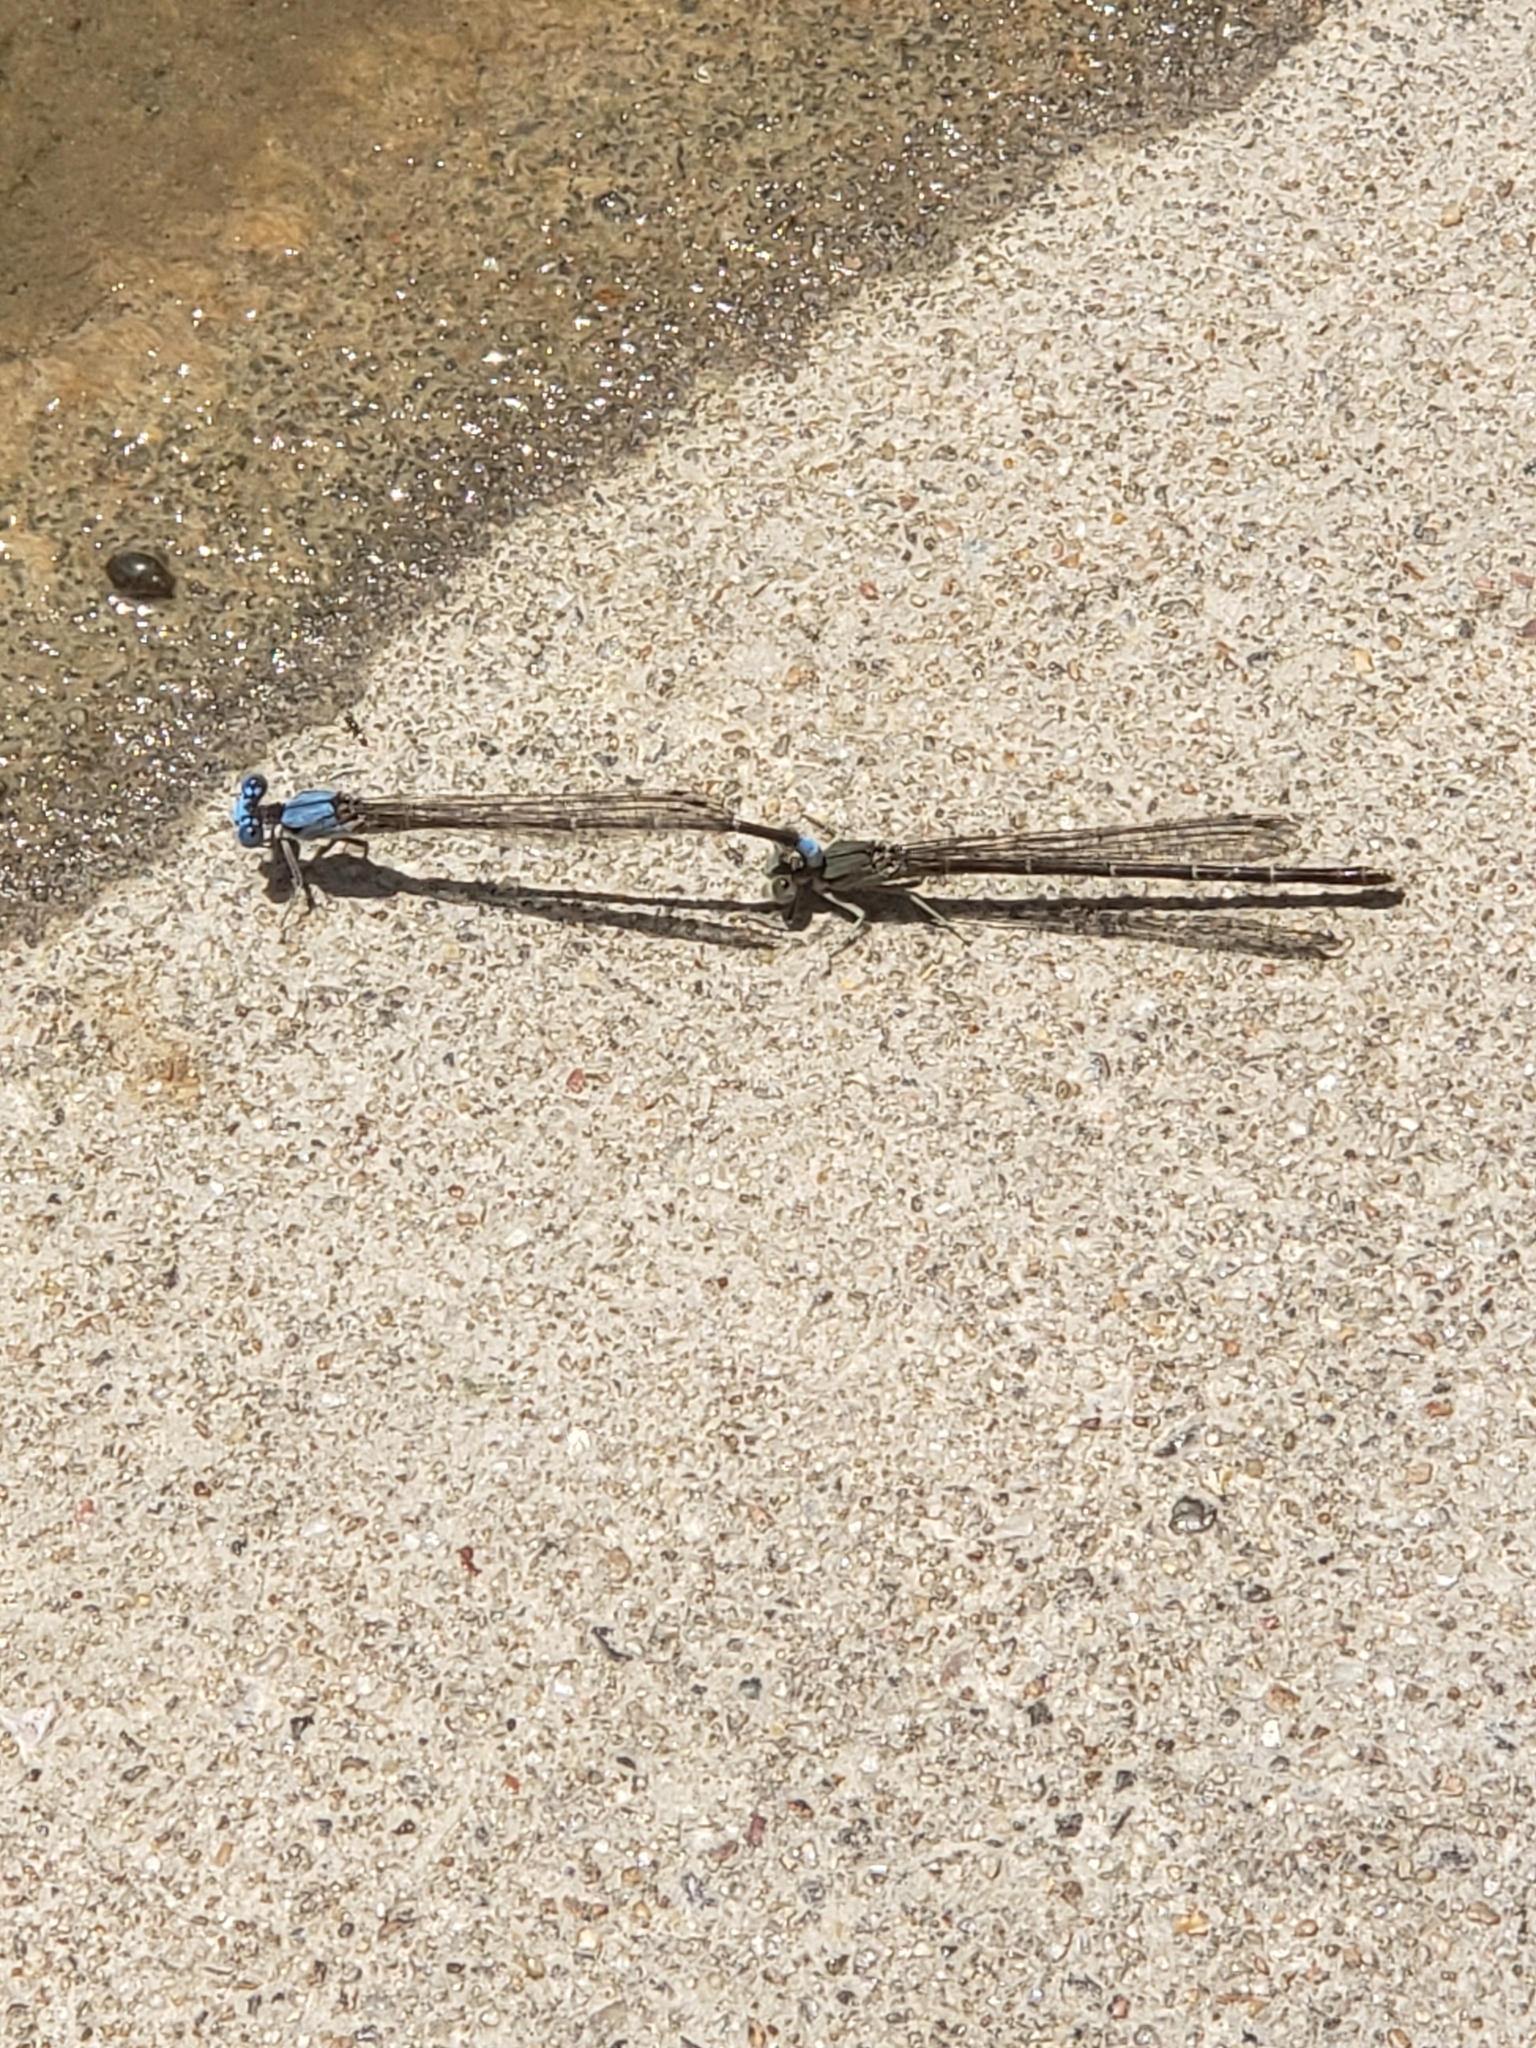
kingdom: Animalia
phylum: Arthropoda
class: Insecta
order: Odonata
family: Coenagrionidae
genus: Argia
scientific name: Argia apicalis
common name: Blue-fronted dancer
